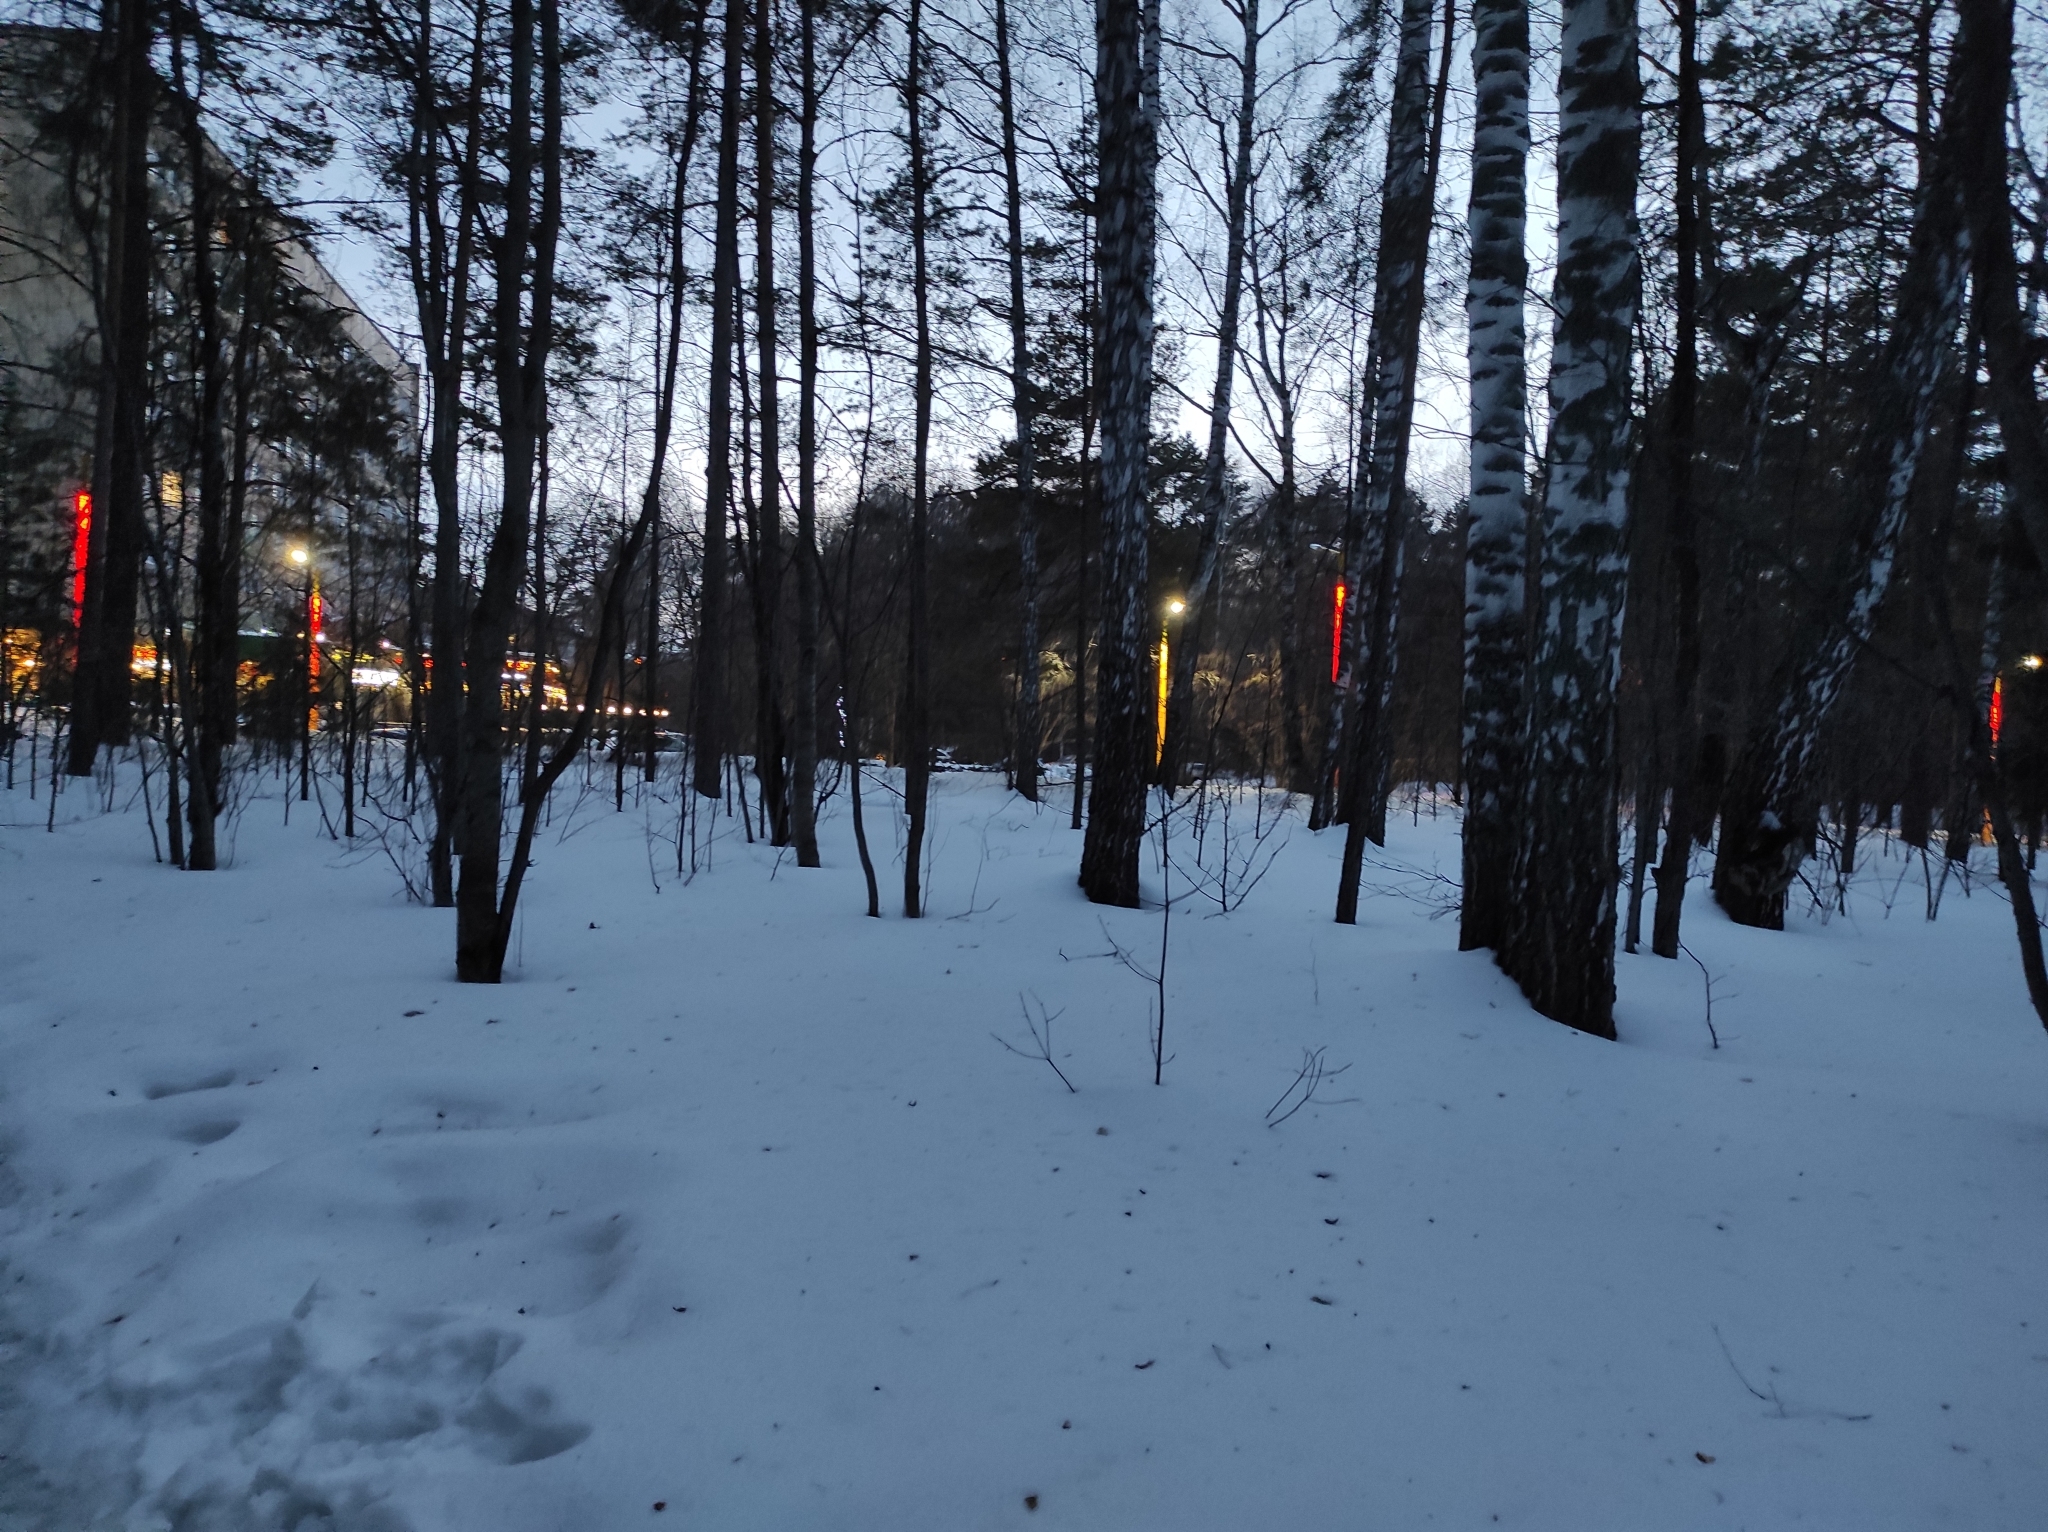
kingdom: Plantae
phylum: Tracheophyta
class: Magnoliopsida
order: Fagales
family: Betulaceae
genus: Betula
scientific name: Betula pendula
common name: Silver birch
